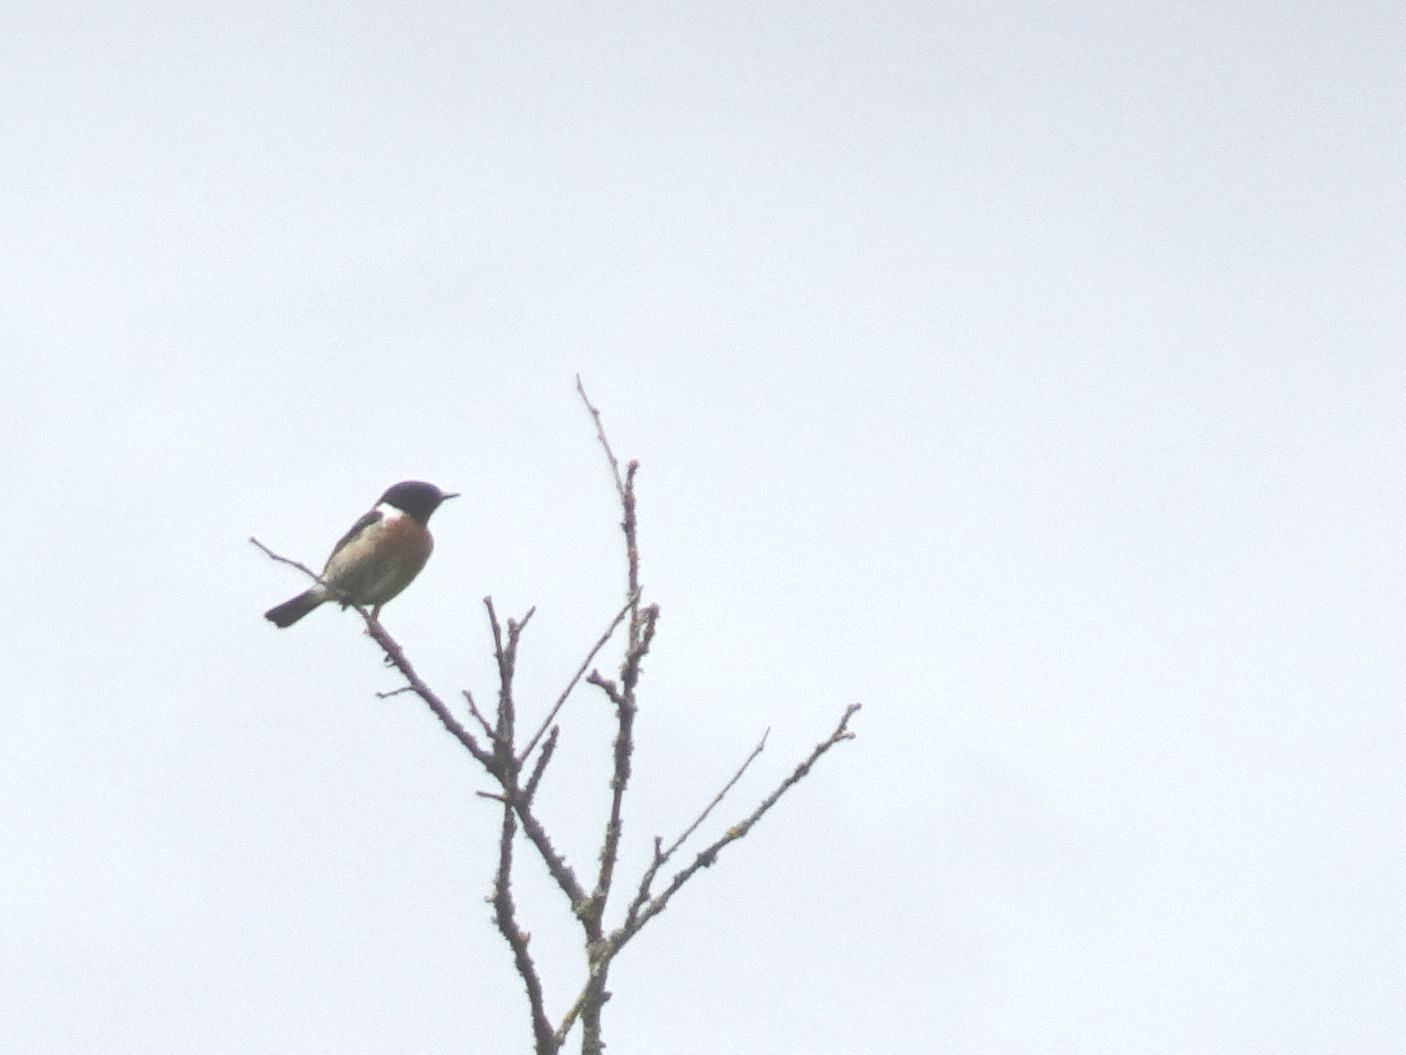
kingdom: Animalia
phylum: Chordata
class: Aves
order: Passeriformes
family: Muscicapidae
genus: Saxicola
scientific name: Saxicola rubicola
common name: European stonechat
